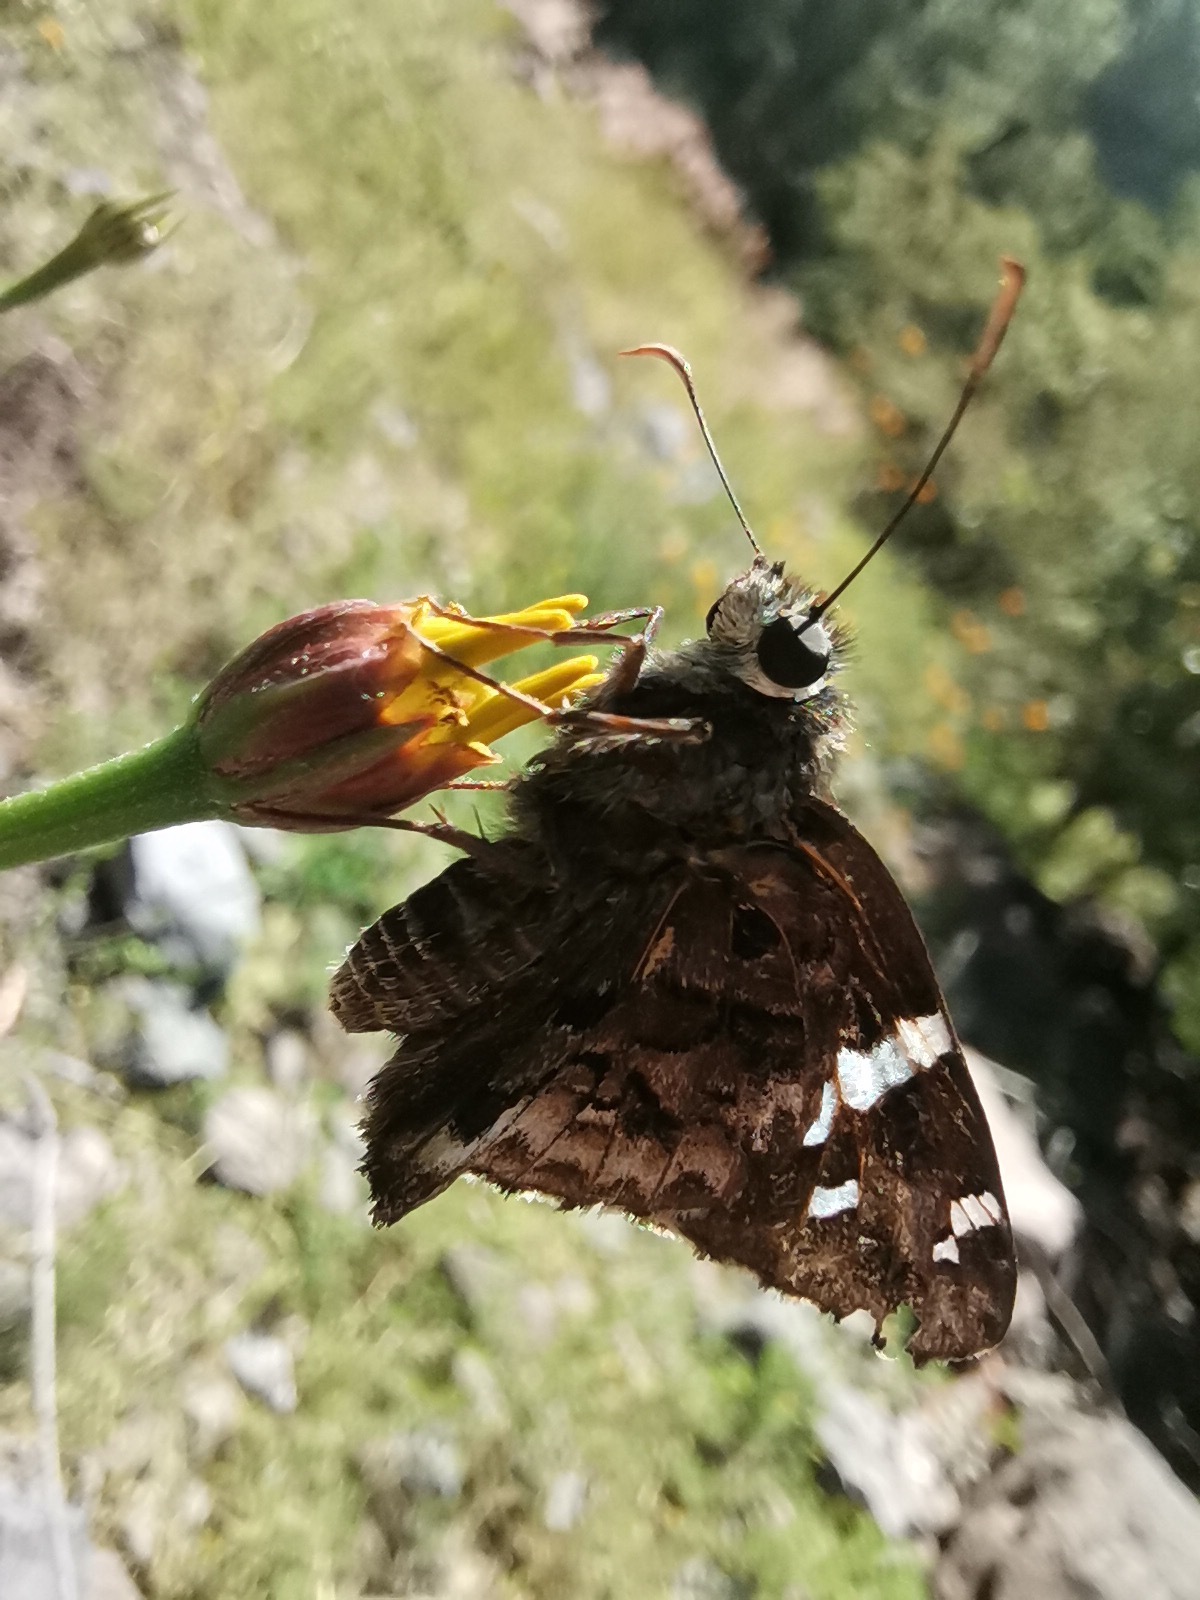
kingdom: Plantae
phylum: Tracheophyta
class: Magnoliopsida
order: Asterales
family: Asteraceae
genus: Tagetes
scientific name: Tagetes erecta
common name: African marigold
